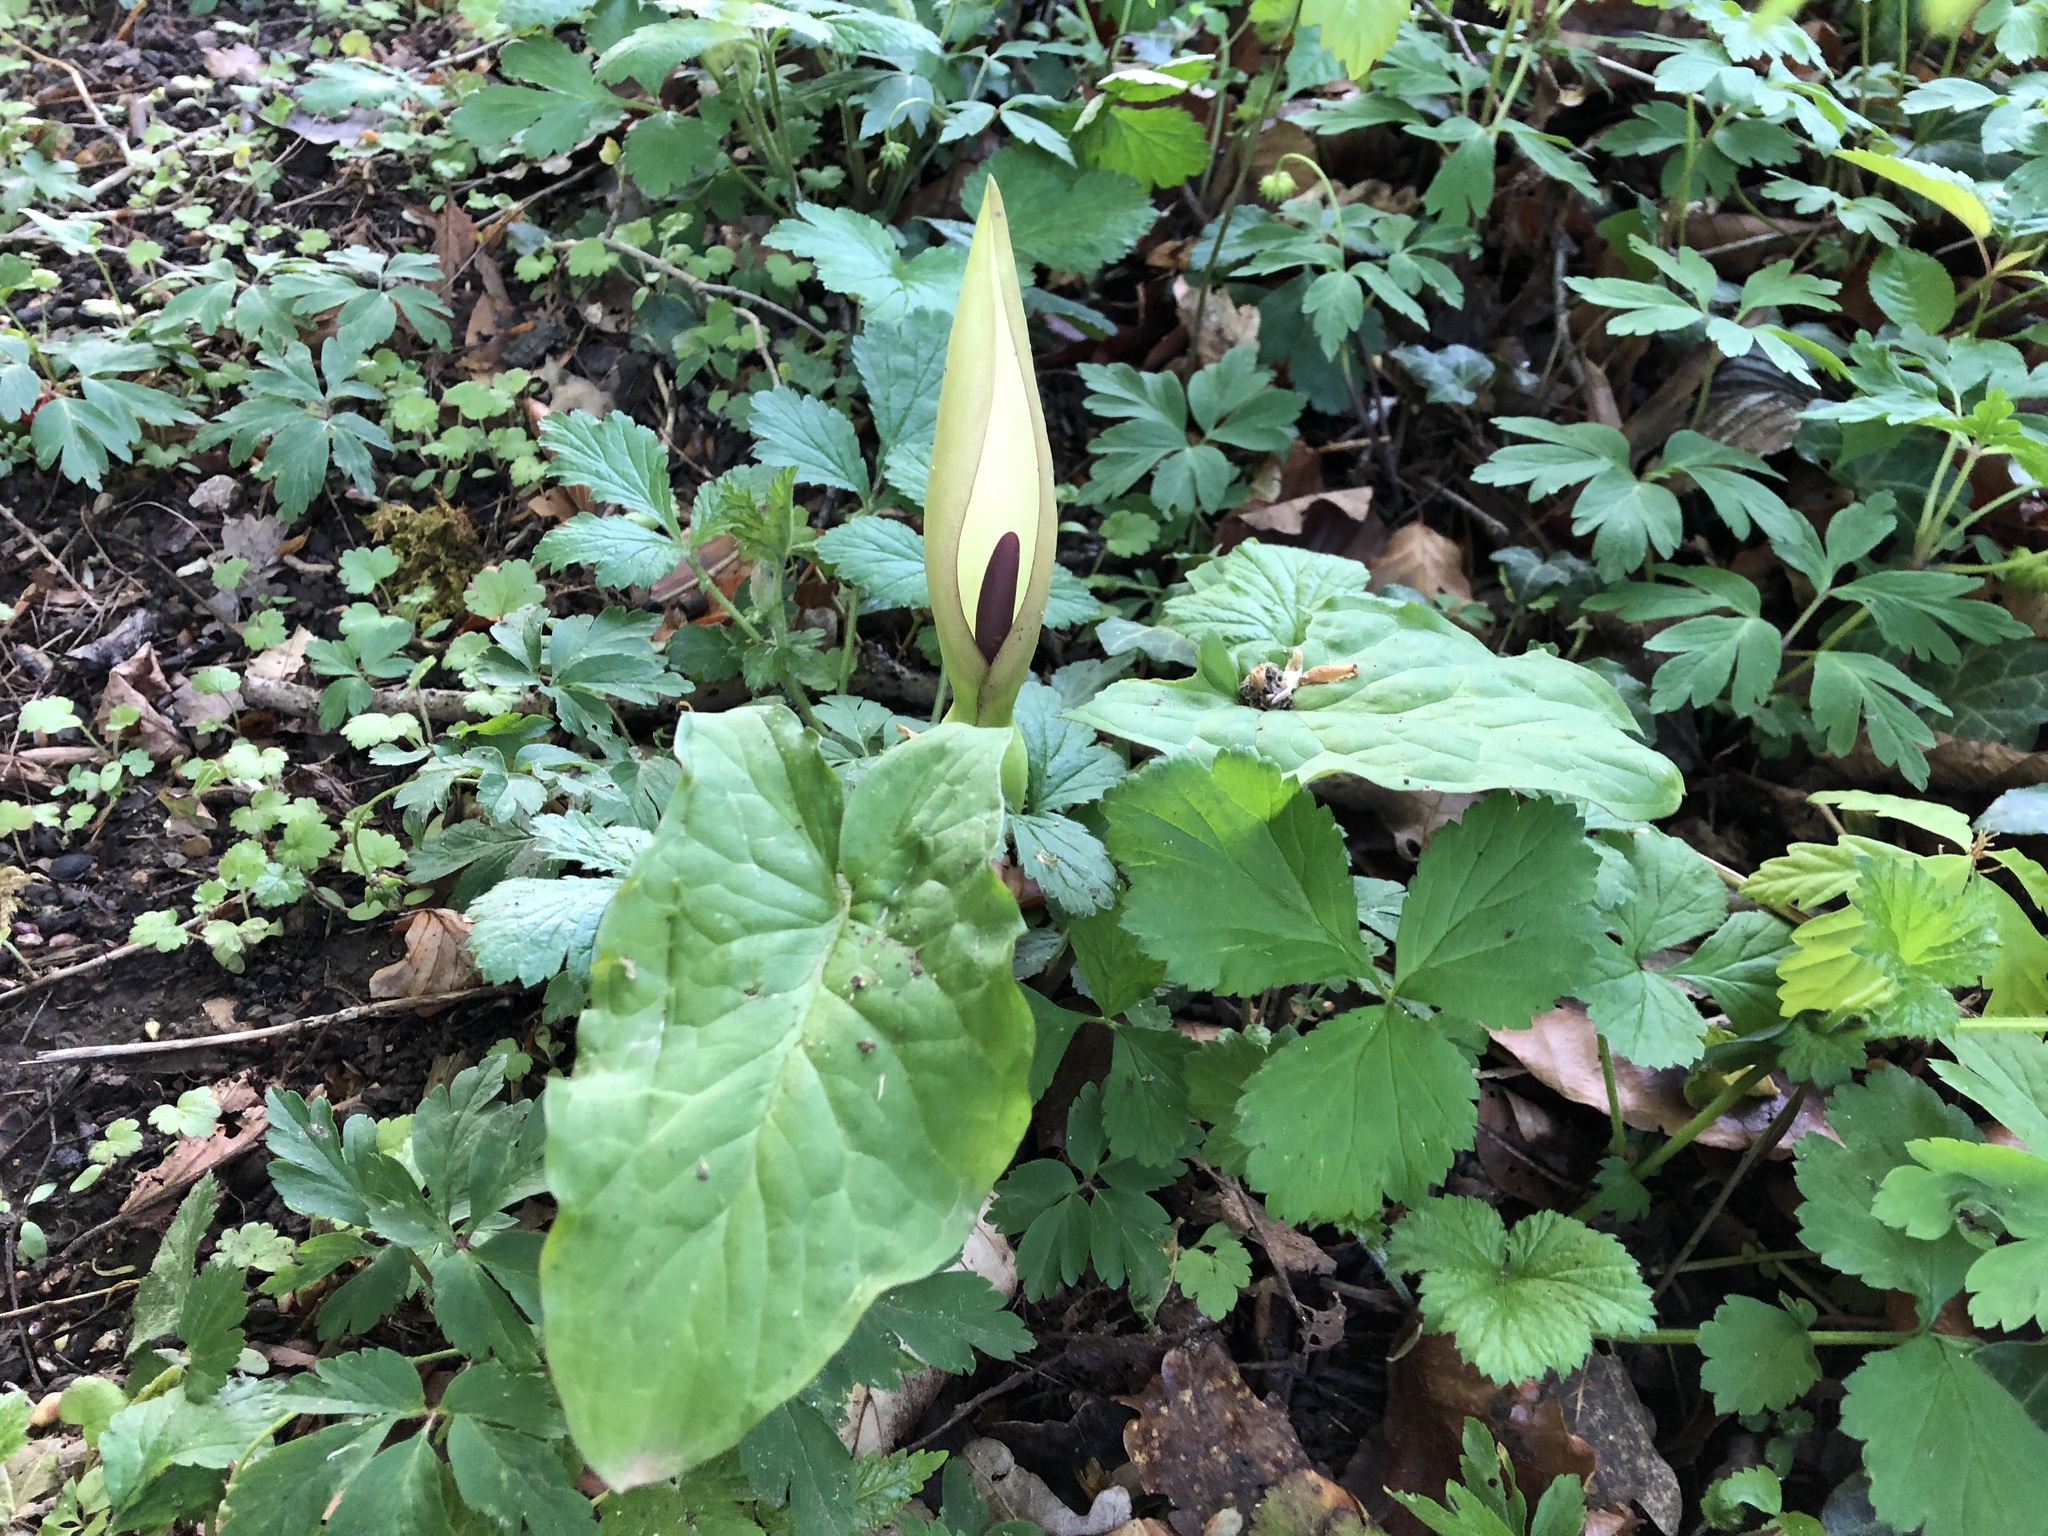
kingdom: Plantae
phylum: Tracheophyta
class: Liliopsida
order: Alismatales
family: Araceae
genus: Arum
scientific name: Arum maculatum
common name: Lords-and-ladies
